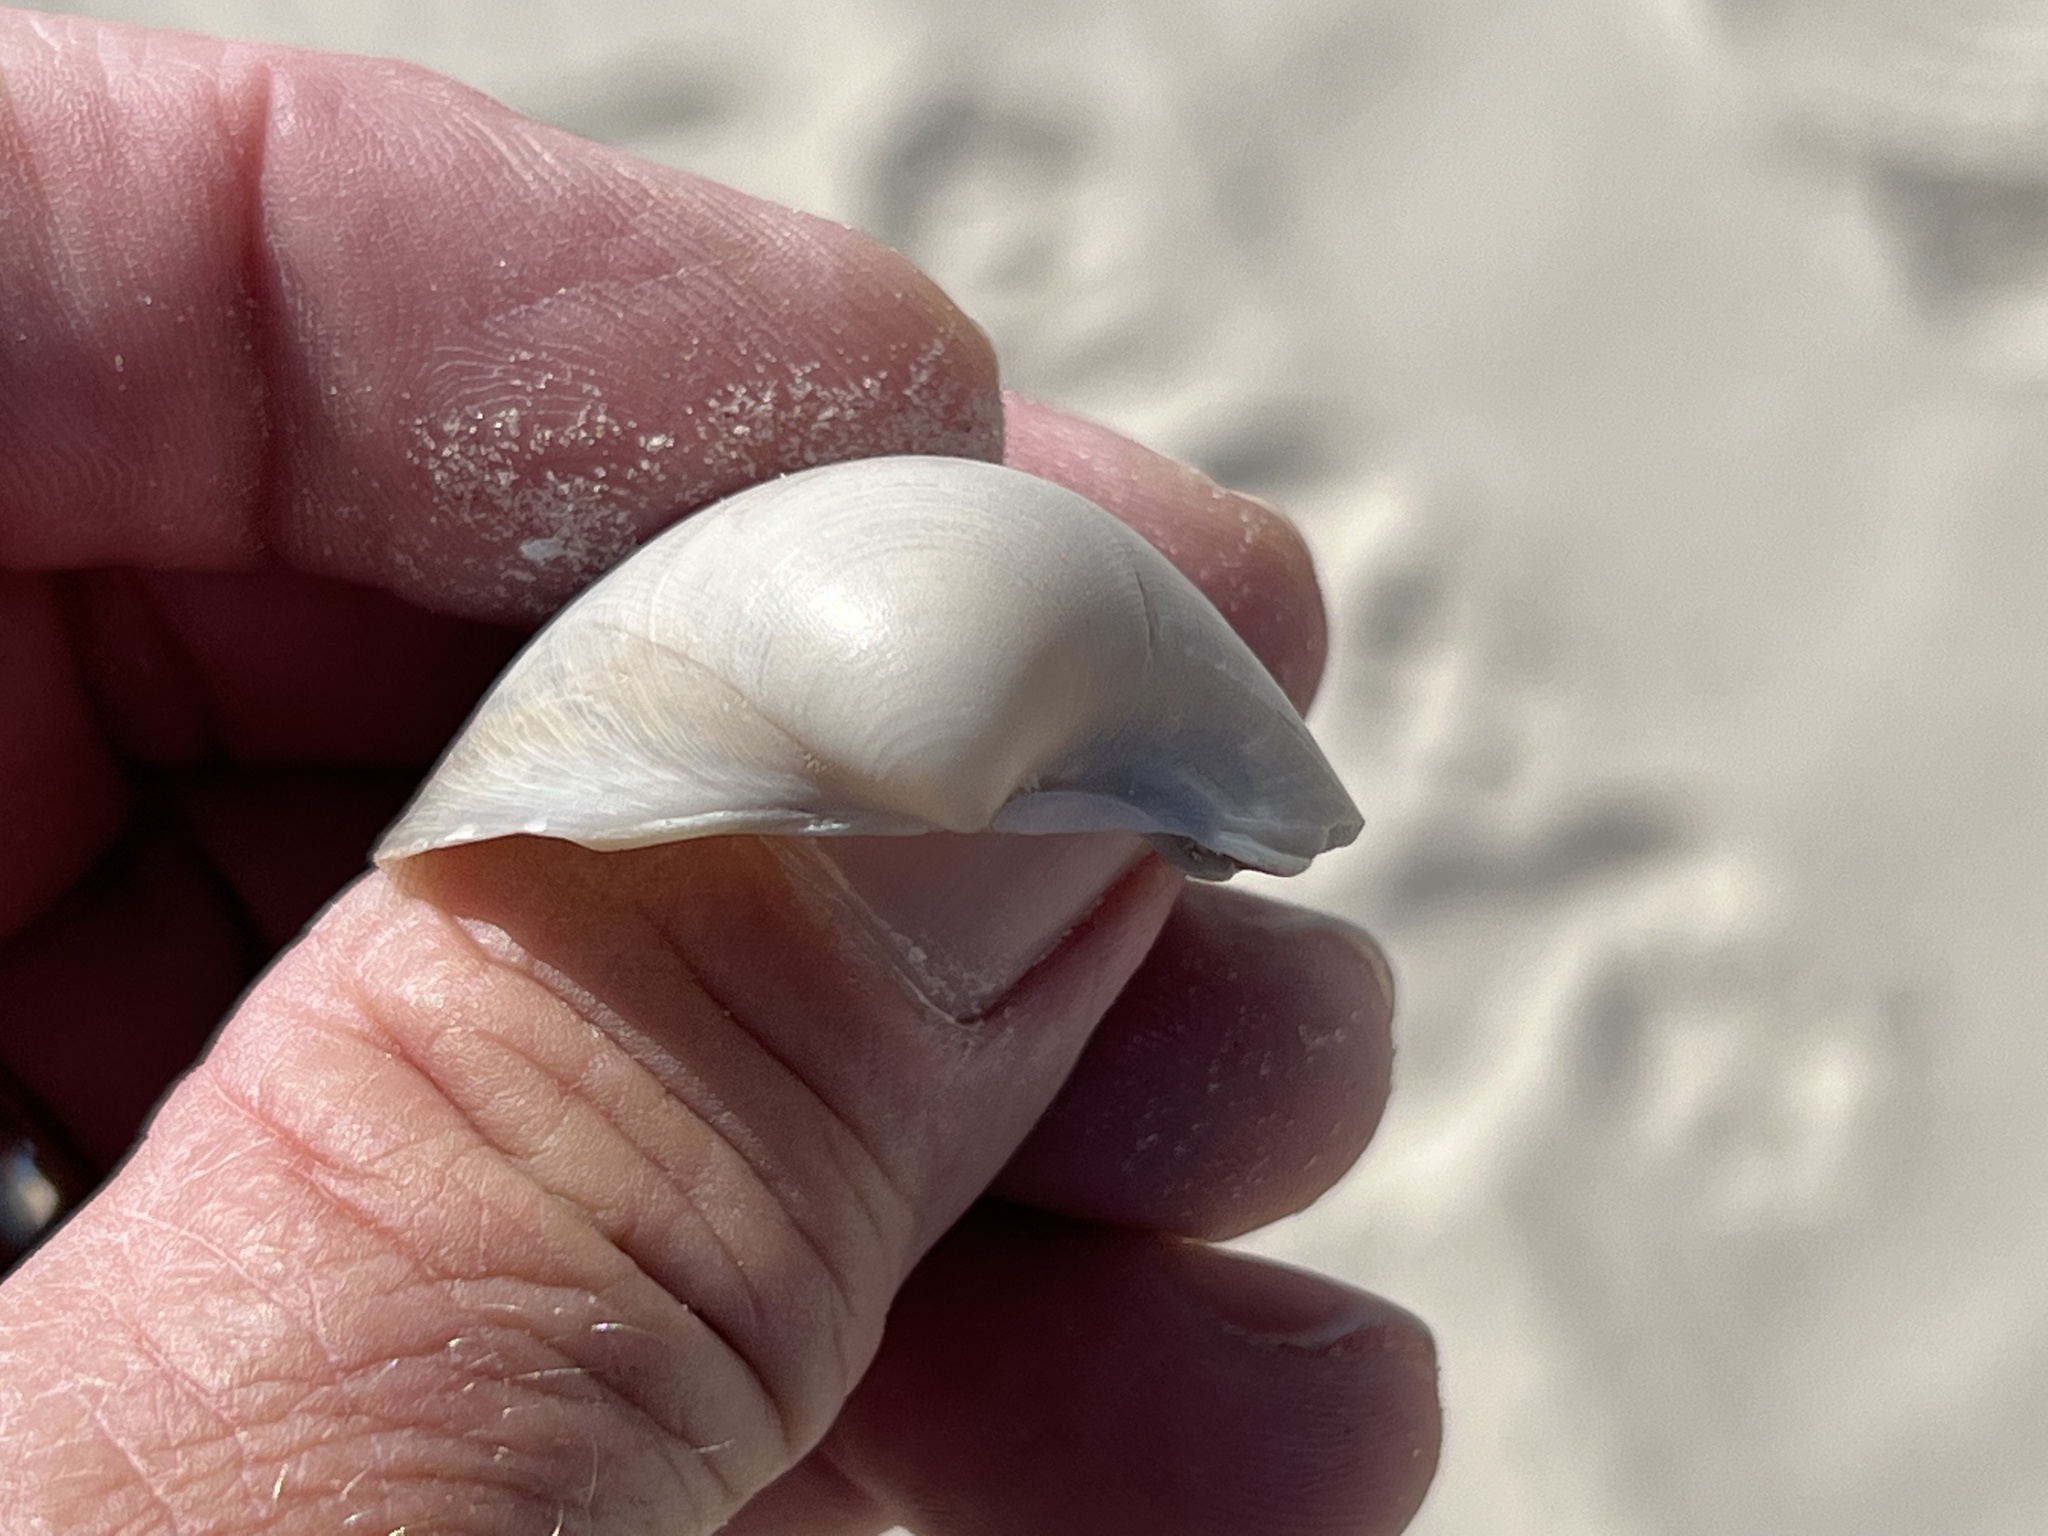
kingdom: Animalia
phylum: Mollusca
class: Bivalvia
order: Cardiida
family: Cardiidae
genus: Laevicardium
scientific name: Laevicardium serratum
